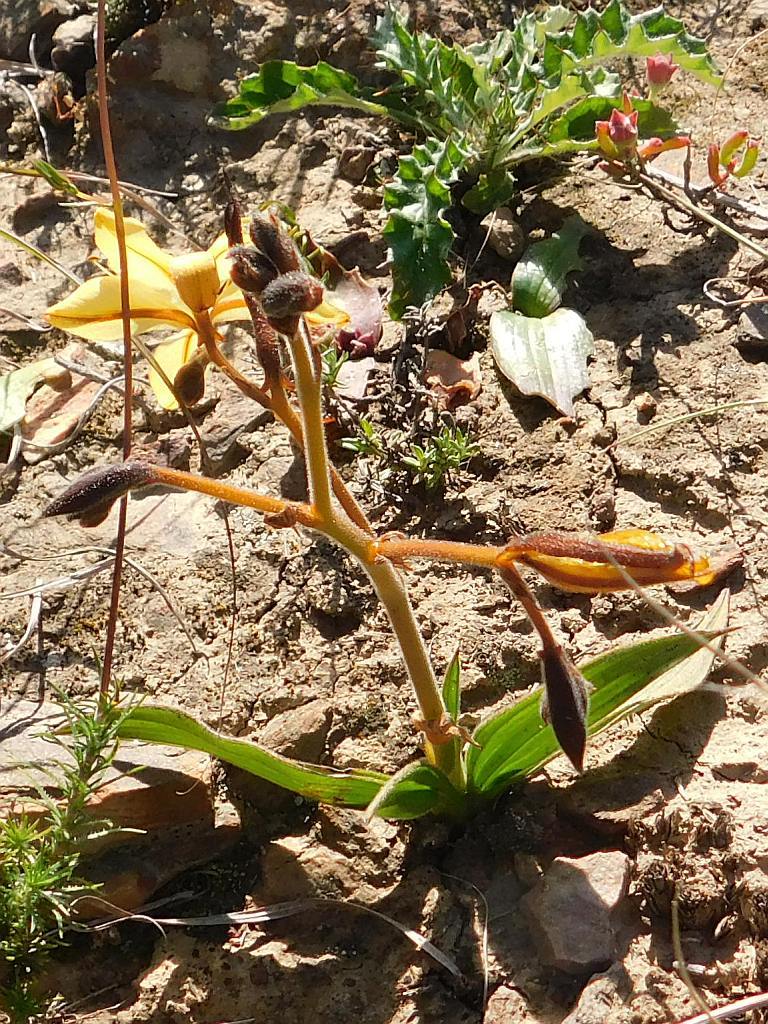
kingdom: Plantae
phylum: Tracheophyta
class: Liliopsida
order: Commelinales
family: Haemodoraceae
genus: Wachendorfia
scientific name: Wachendorfia paniculata
